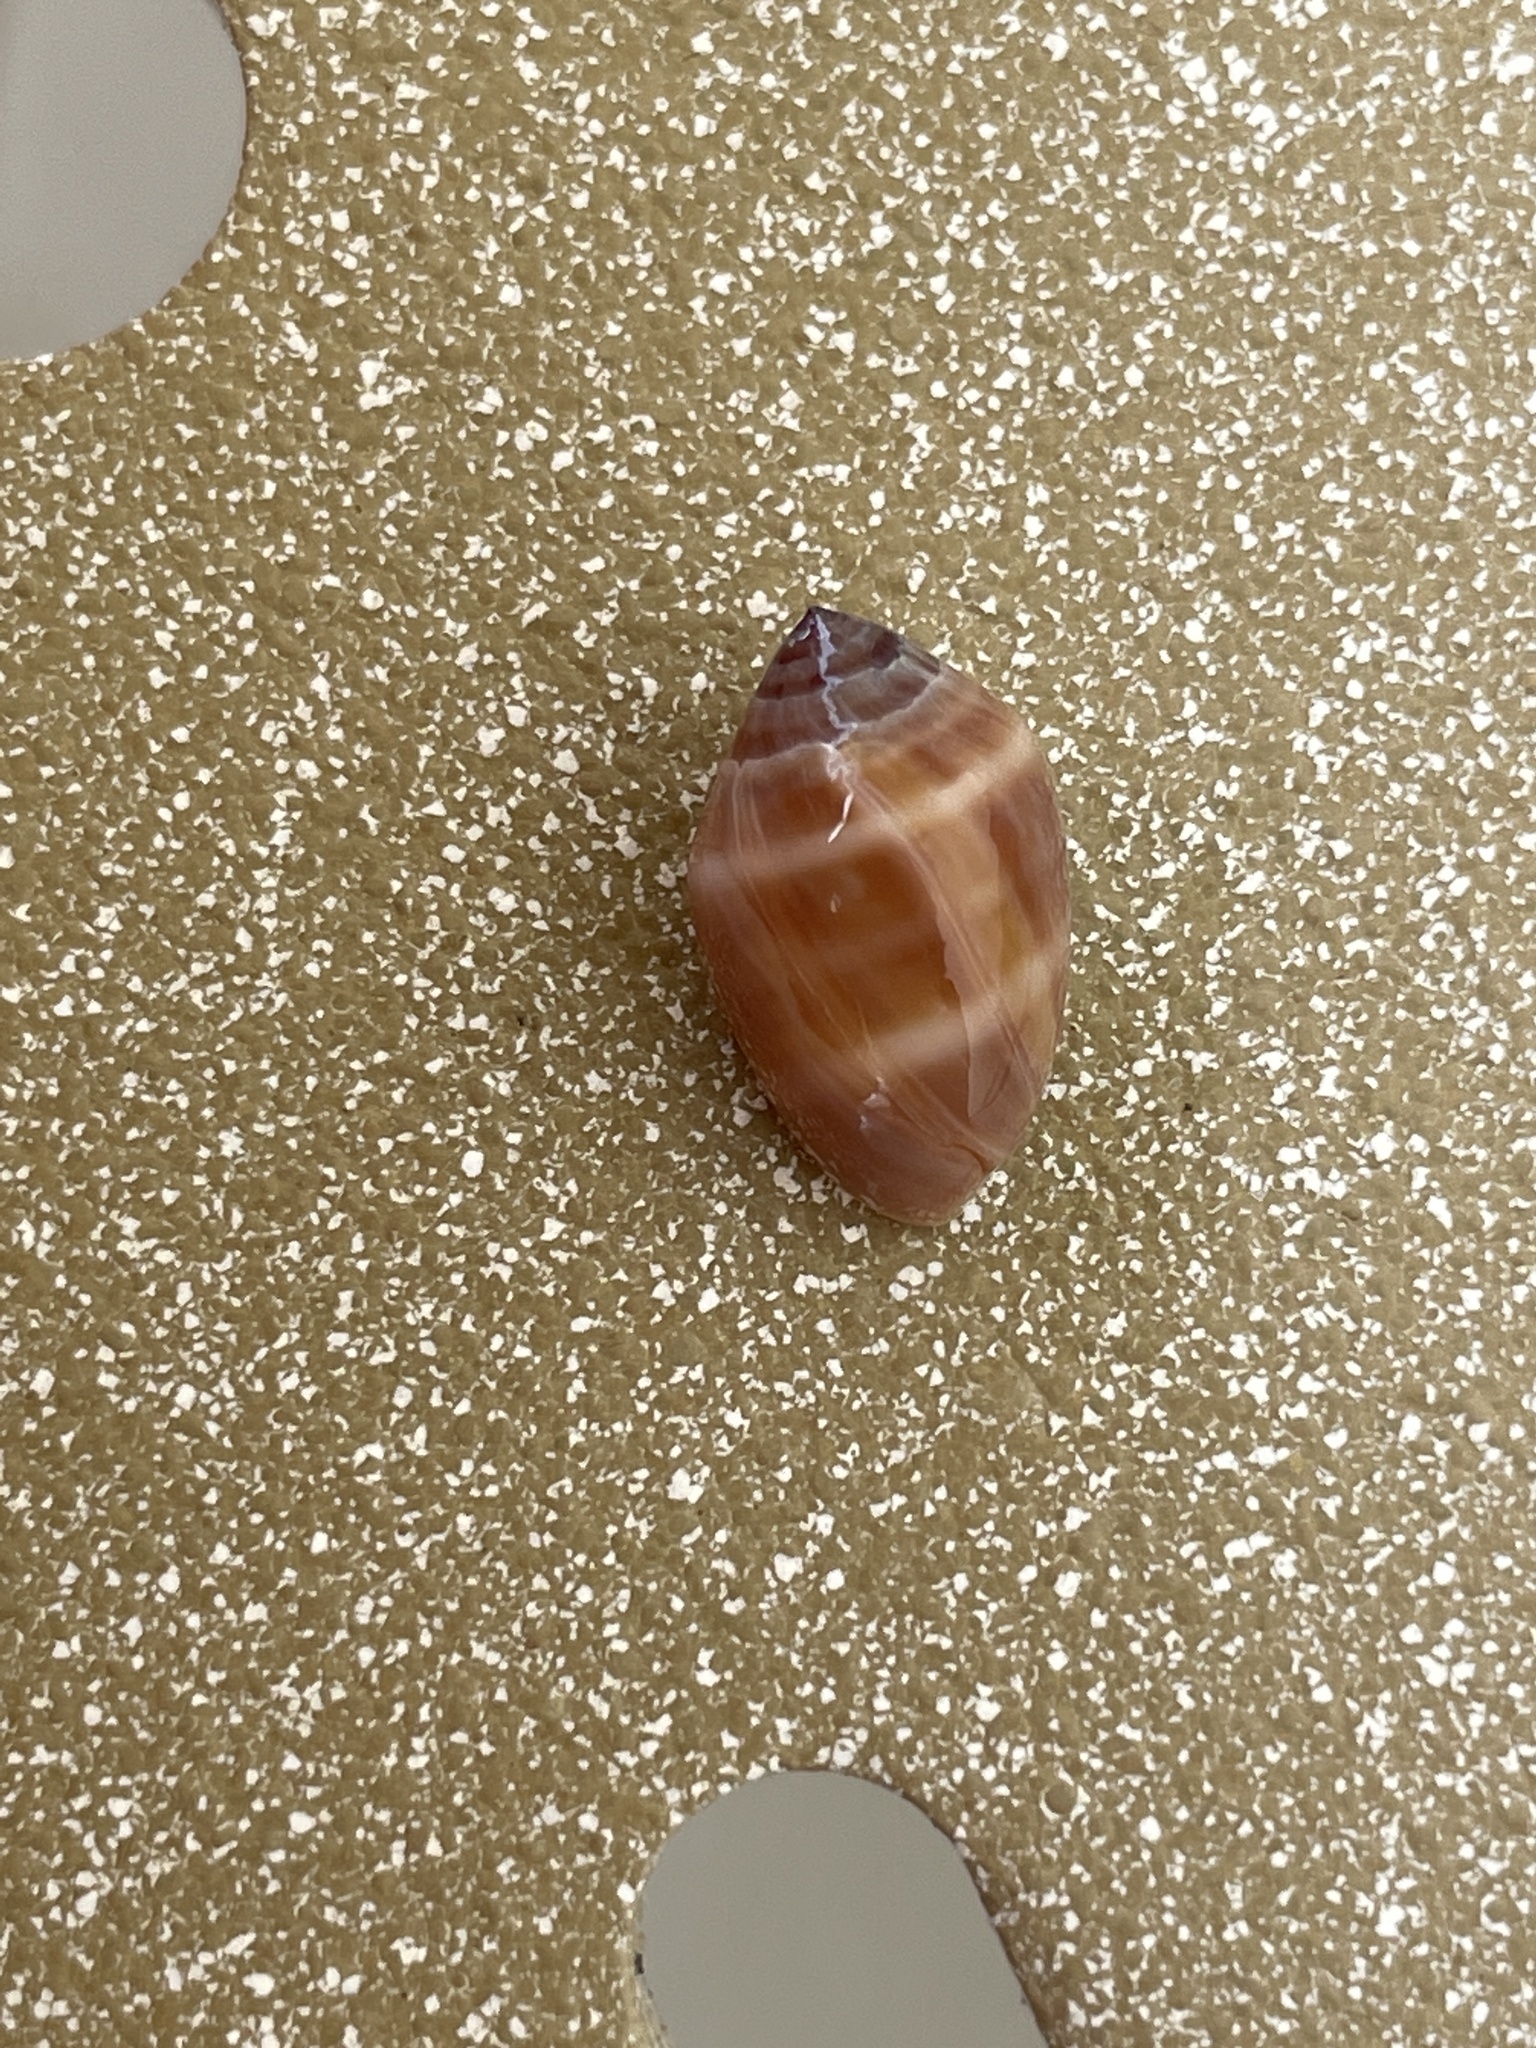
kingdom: Animalia
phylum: Mollusca
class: Gastropoda
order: Ellobiida
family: Ellobiidae
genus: Melampus
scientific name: Melampus coffea
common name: Coffee bean snail
